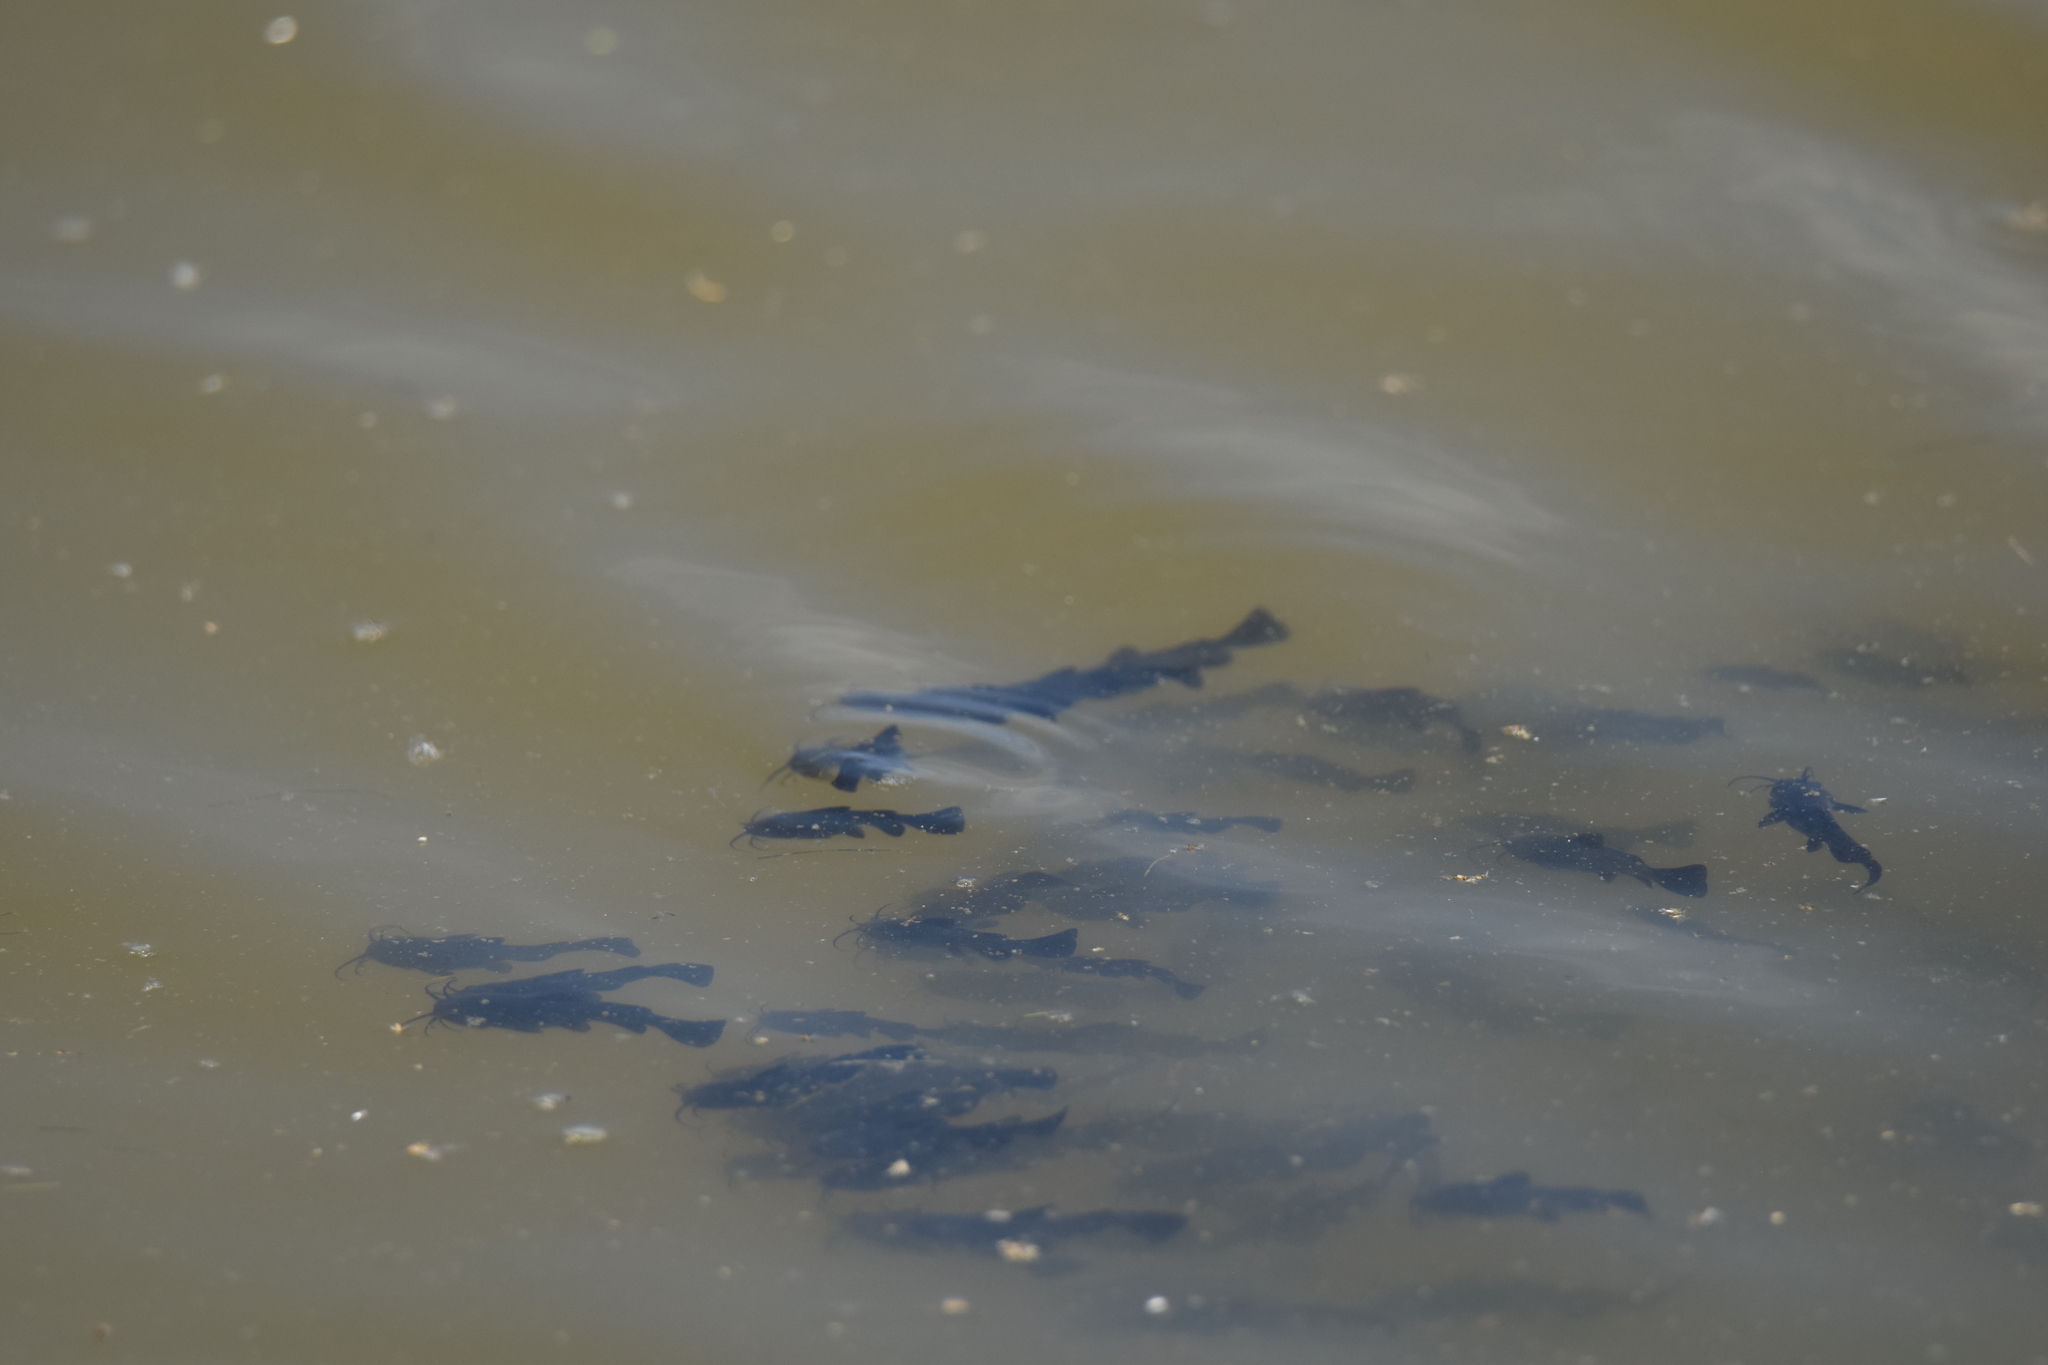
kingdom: Animalia
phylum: Chordata
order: Siluriformes
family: Ictaluridae
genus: Ameiurus
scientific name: Ameiurus melas
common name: Black bullhead
